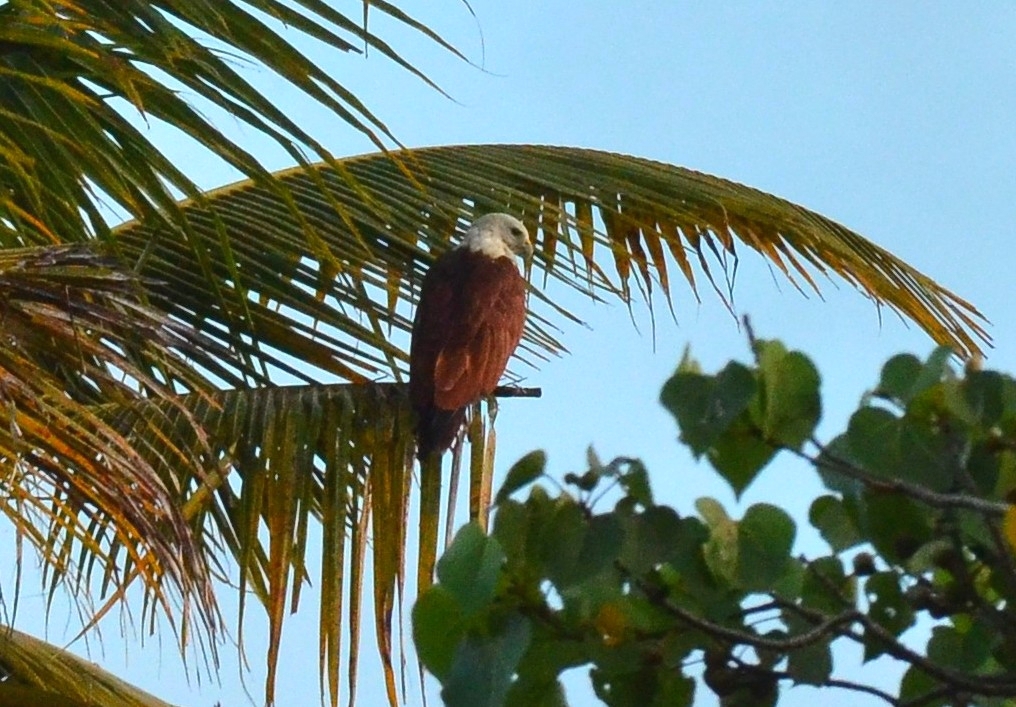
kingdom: Animalia
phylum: Chordata
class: Aves
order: Accipitriformes
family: Accipitridae
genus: Haliastur
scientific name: Haliastur indus
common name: Brahminy kite
